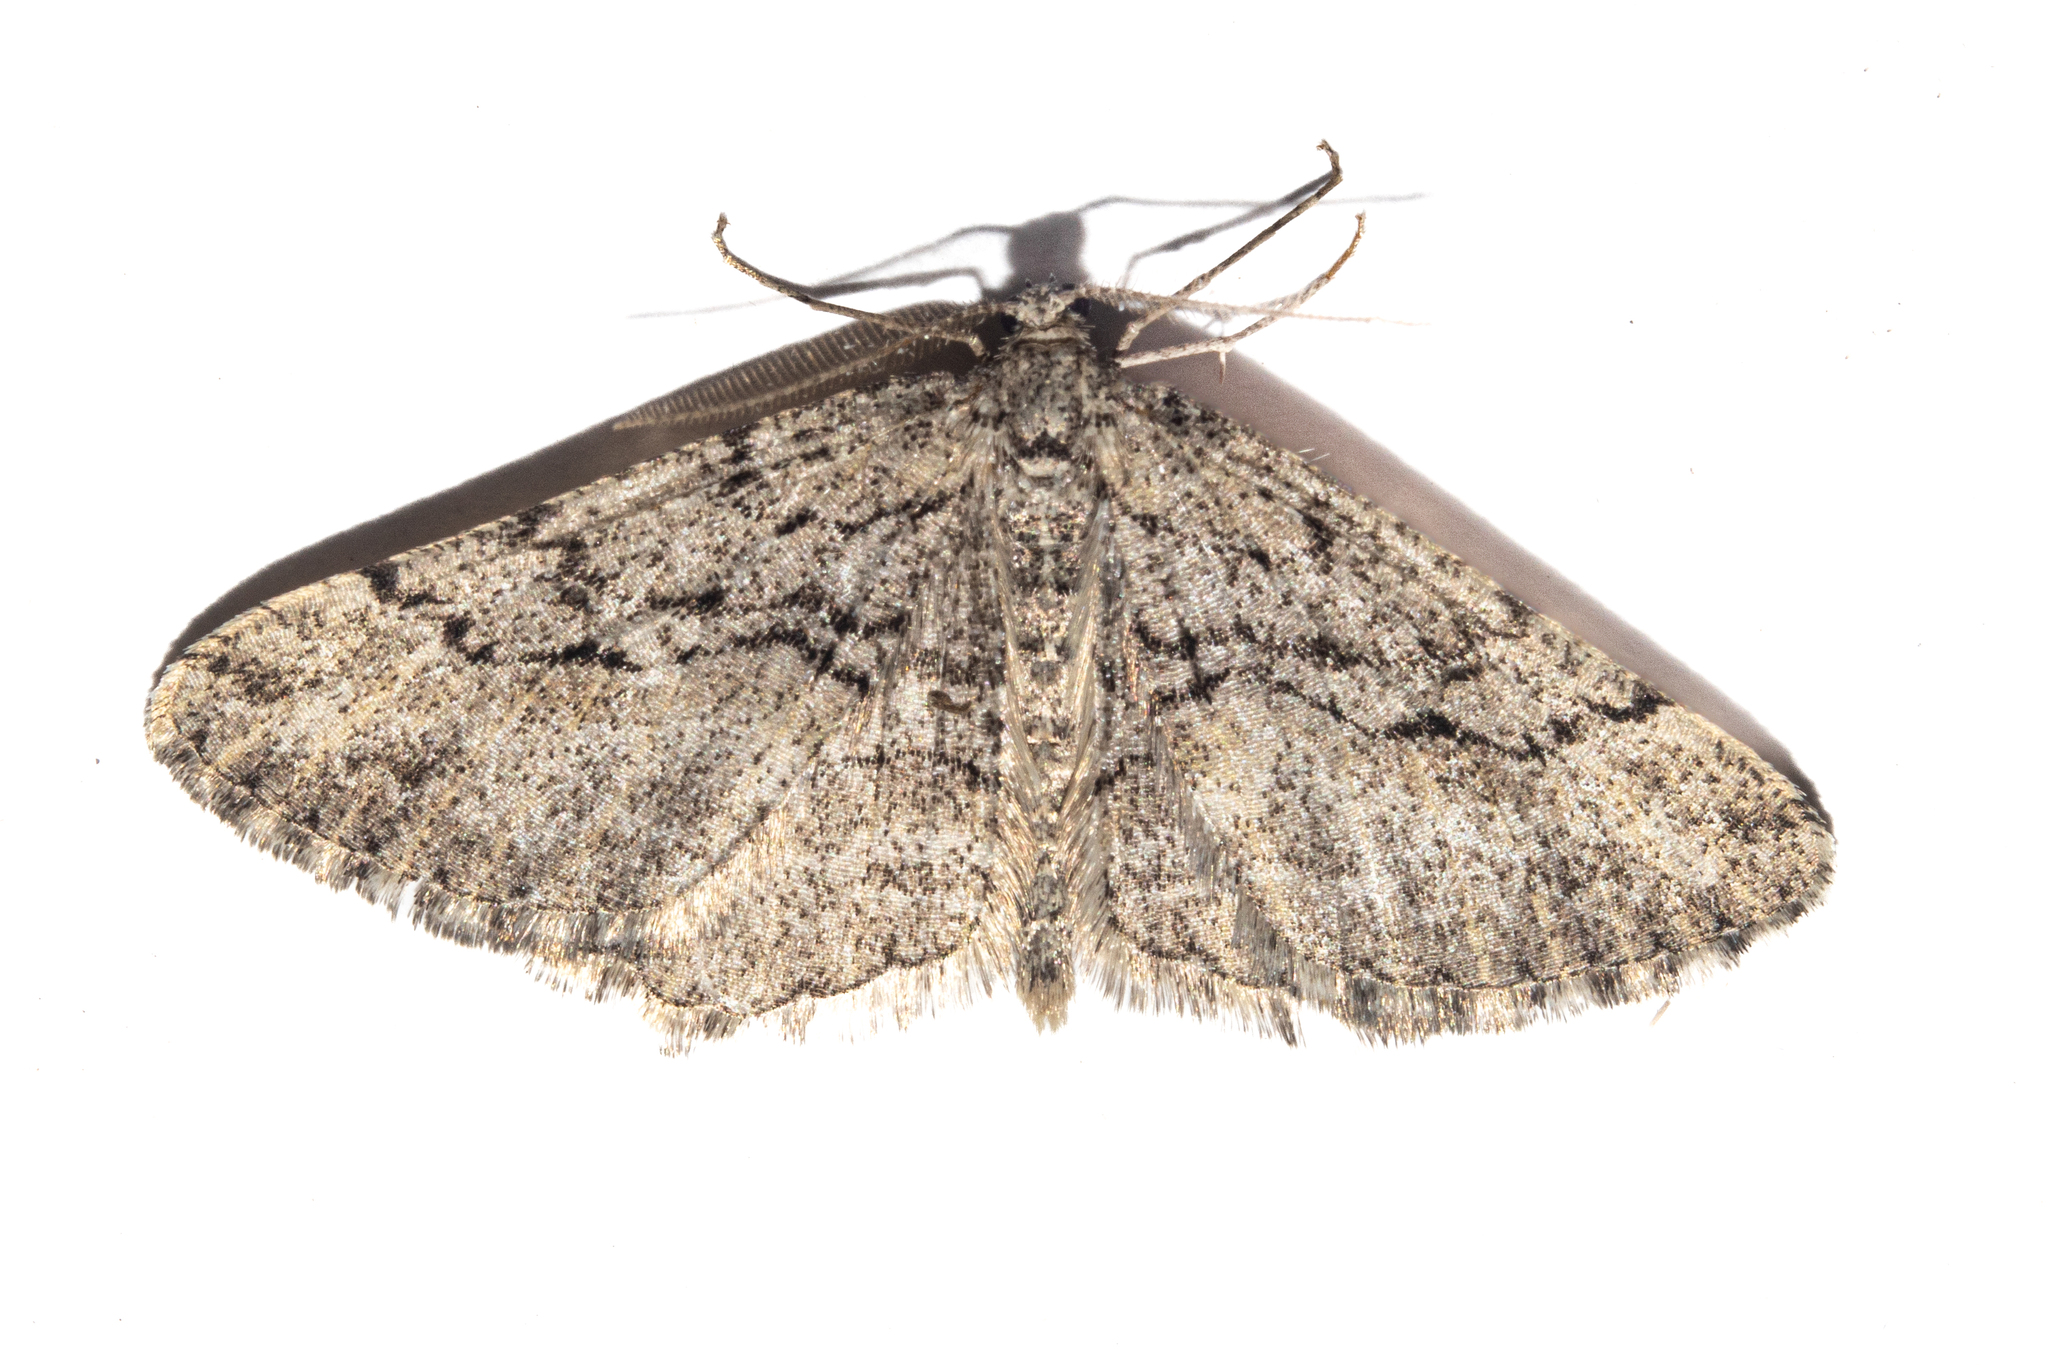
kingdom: Animalia
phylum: Arthropoda
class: Insecta
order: Lepidoptera
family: Geometridae
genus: Zermizinga
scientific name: Zermizinga indocilisaria
